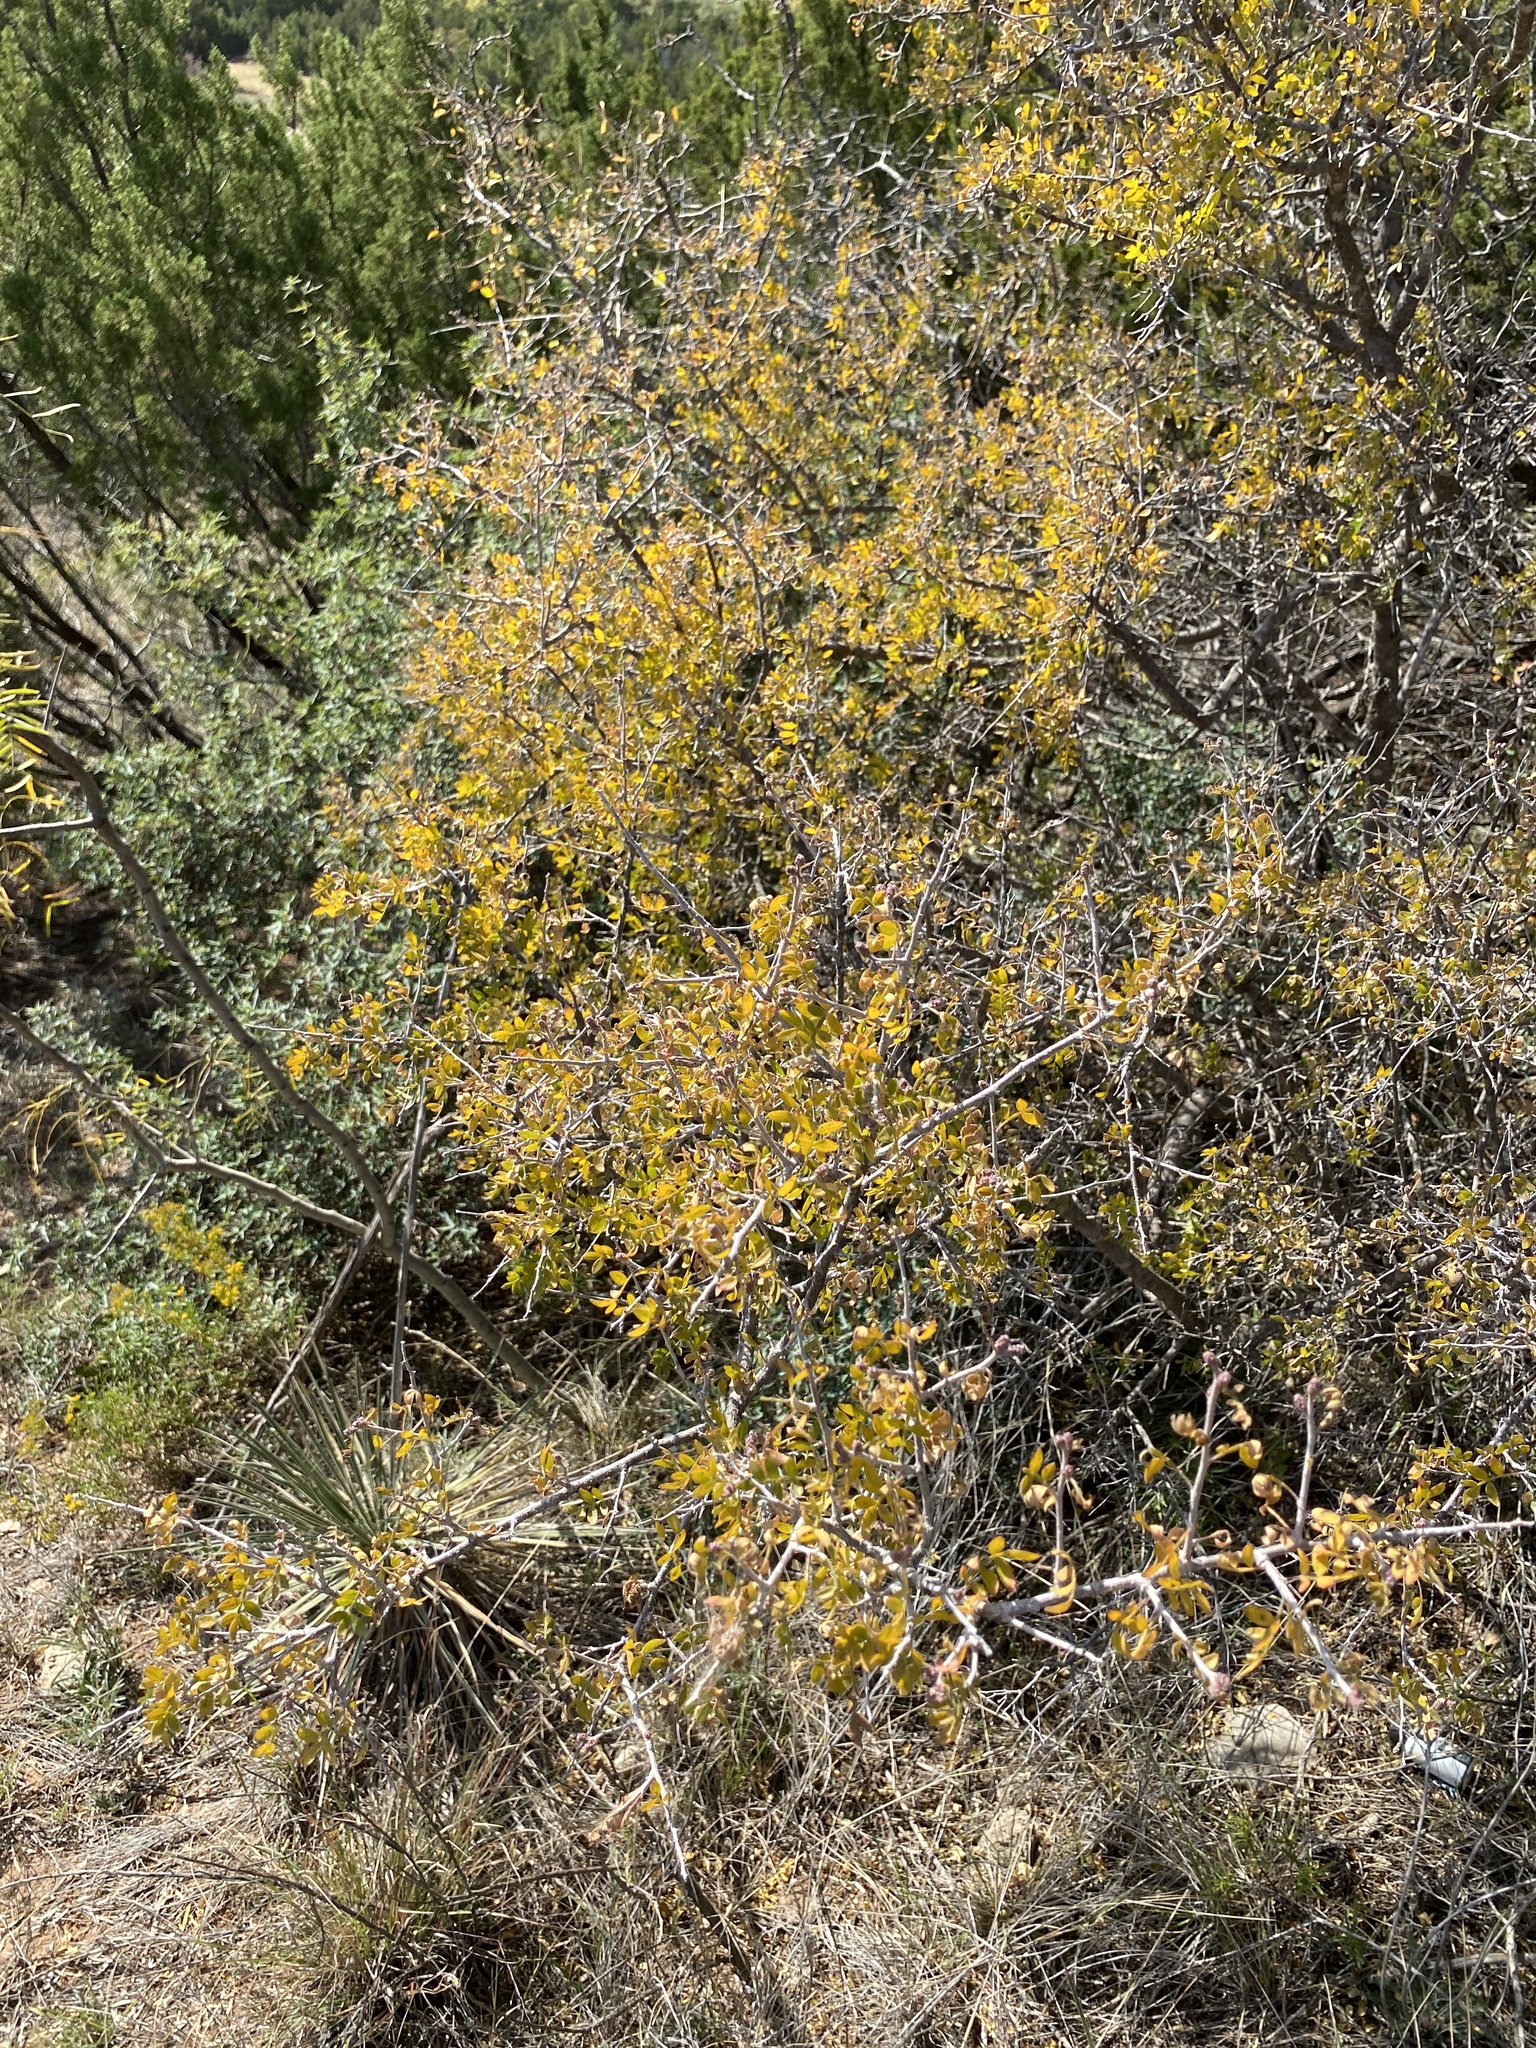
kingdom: Plantae
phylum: Tracheophyta
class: Magnoliopsida
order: Sapindales
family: Anacardiaceae
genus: Rhus
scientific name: Rhus microphylla
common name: Desert sumac
